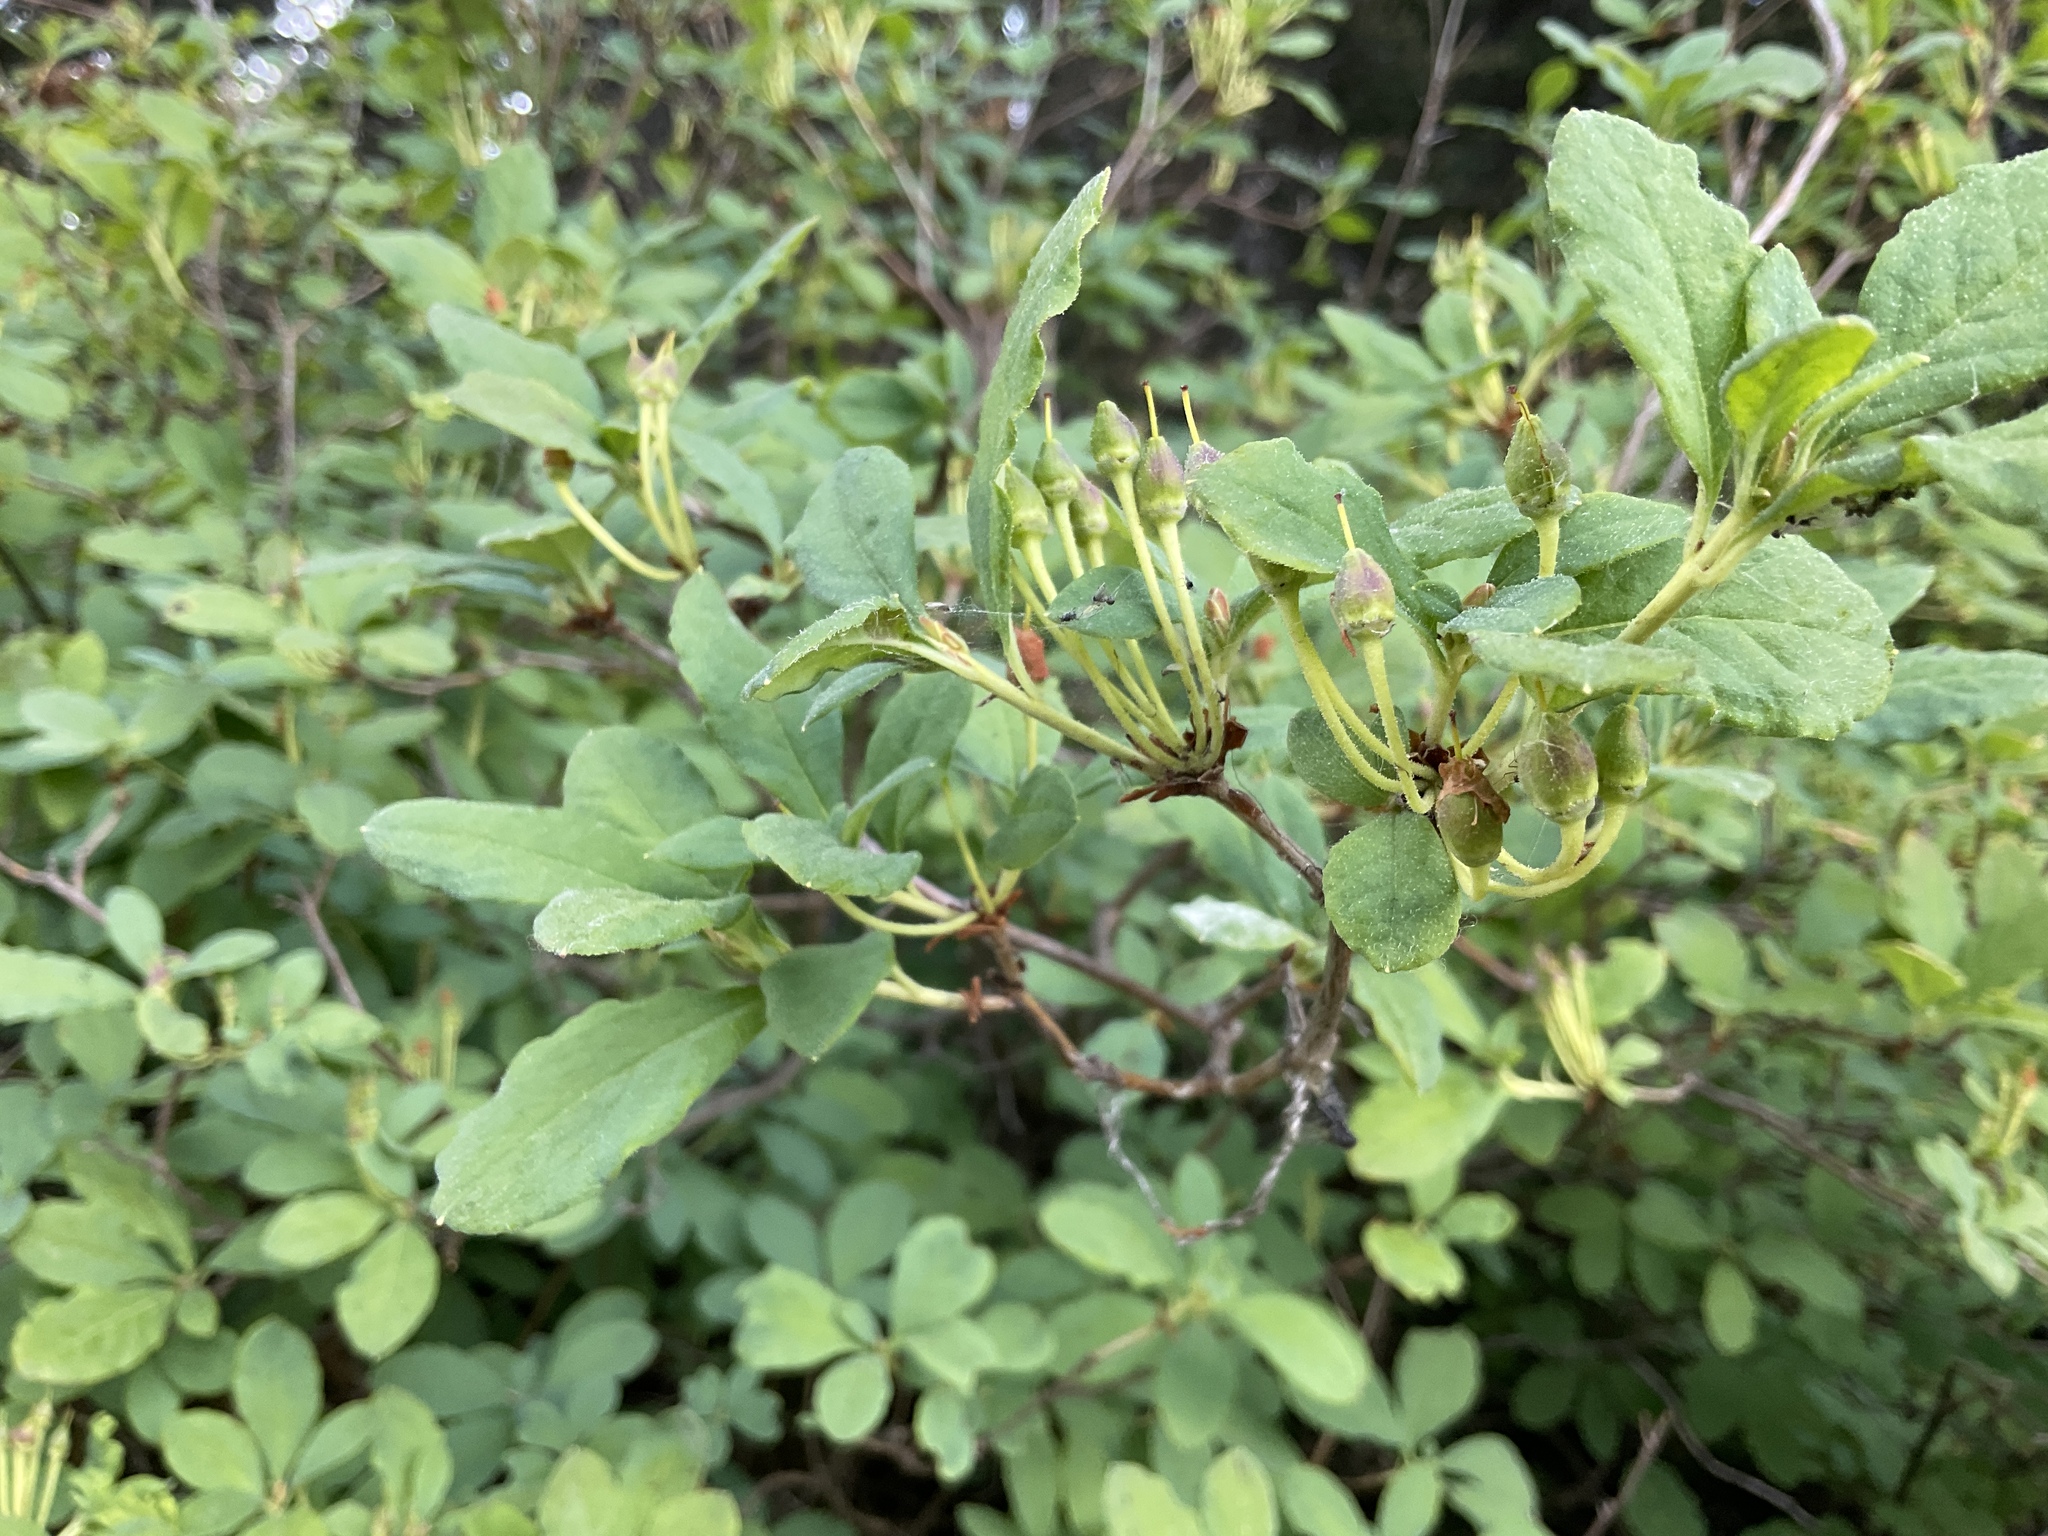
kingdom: Plantae
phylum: Tracheophyta
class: Magnoliopsida
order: Ericales
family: Ericaceae
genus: Rhododendron
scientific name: Rhododendron menziesii
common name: Pacific menziesia
